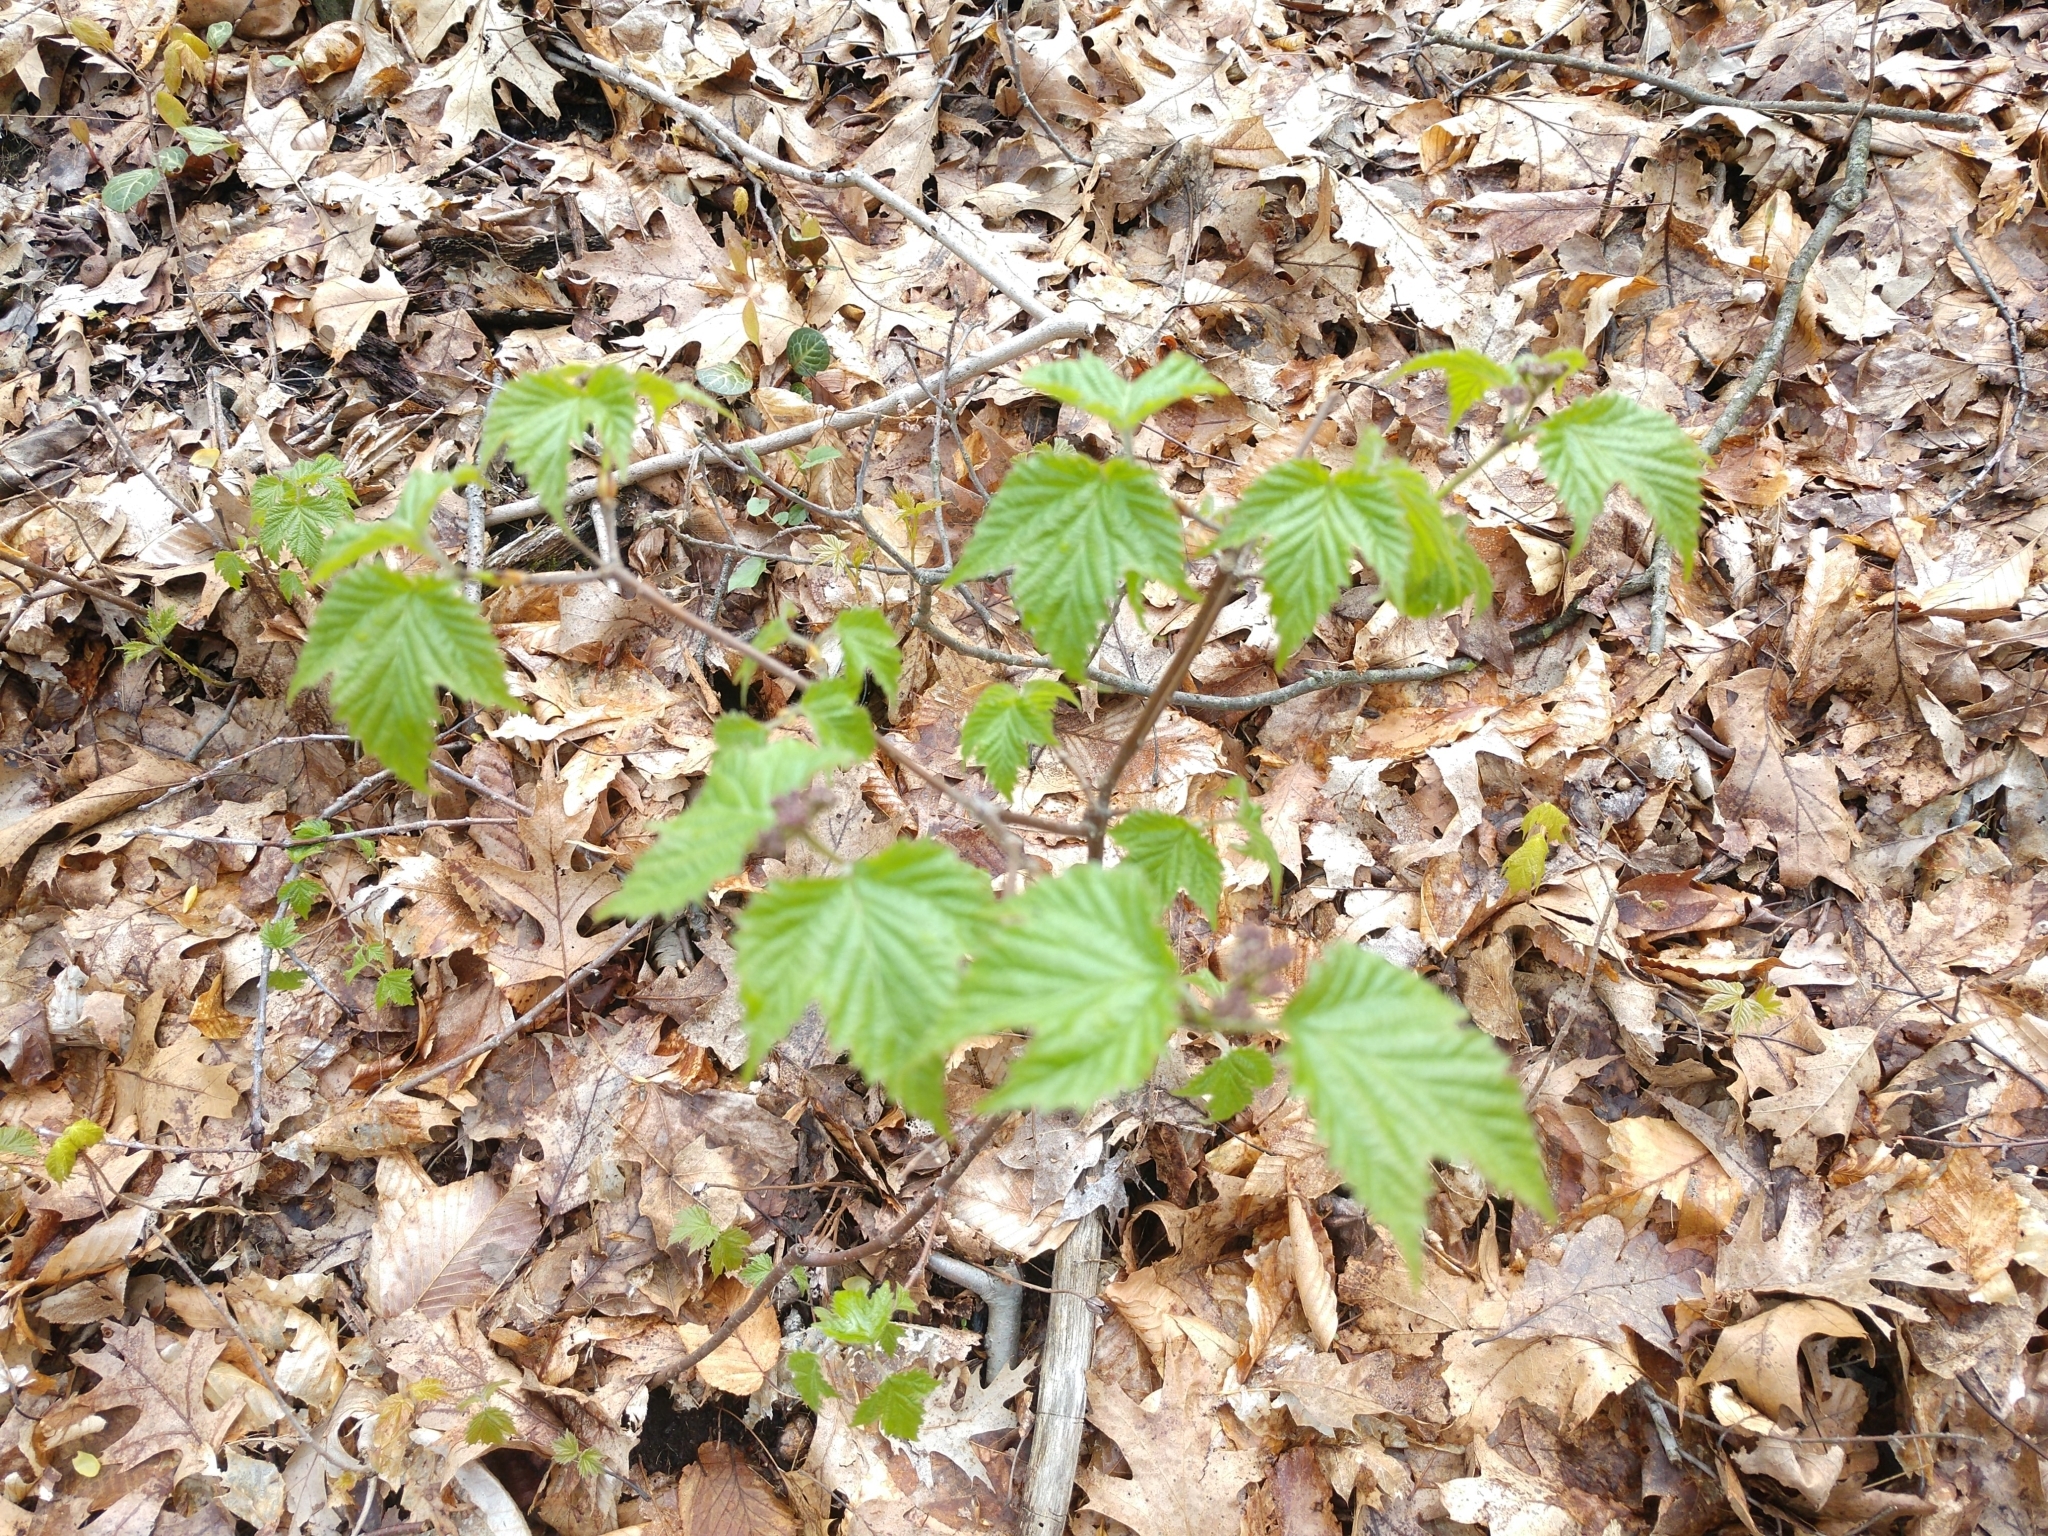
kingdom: Plantae
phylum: Tracheophyta
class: Magnoliopsida
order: Dipsacales
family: Viburnaceae
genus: Viburnum
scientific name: Viburnum acerifolium
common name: Dockmackie
